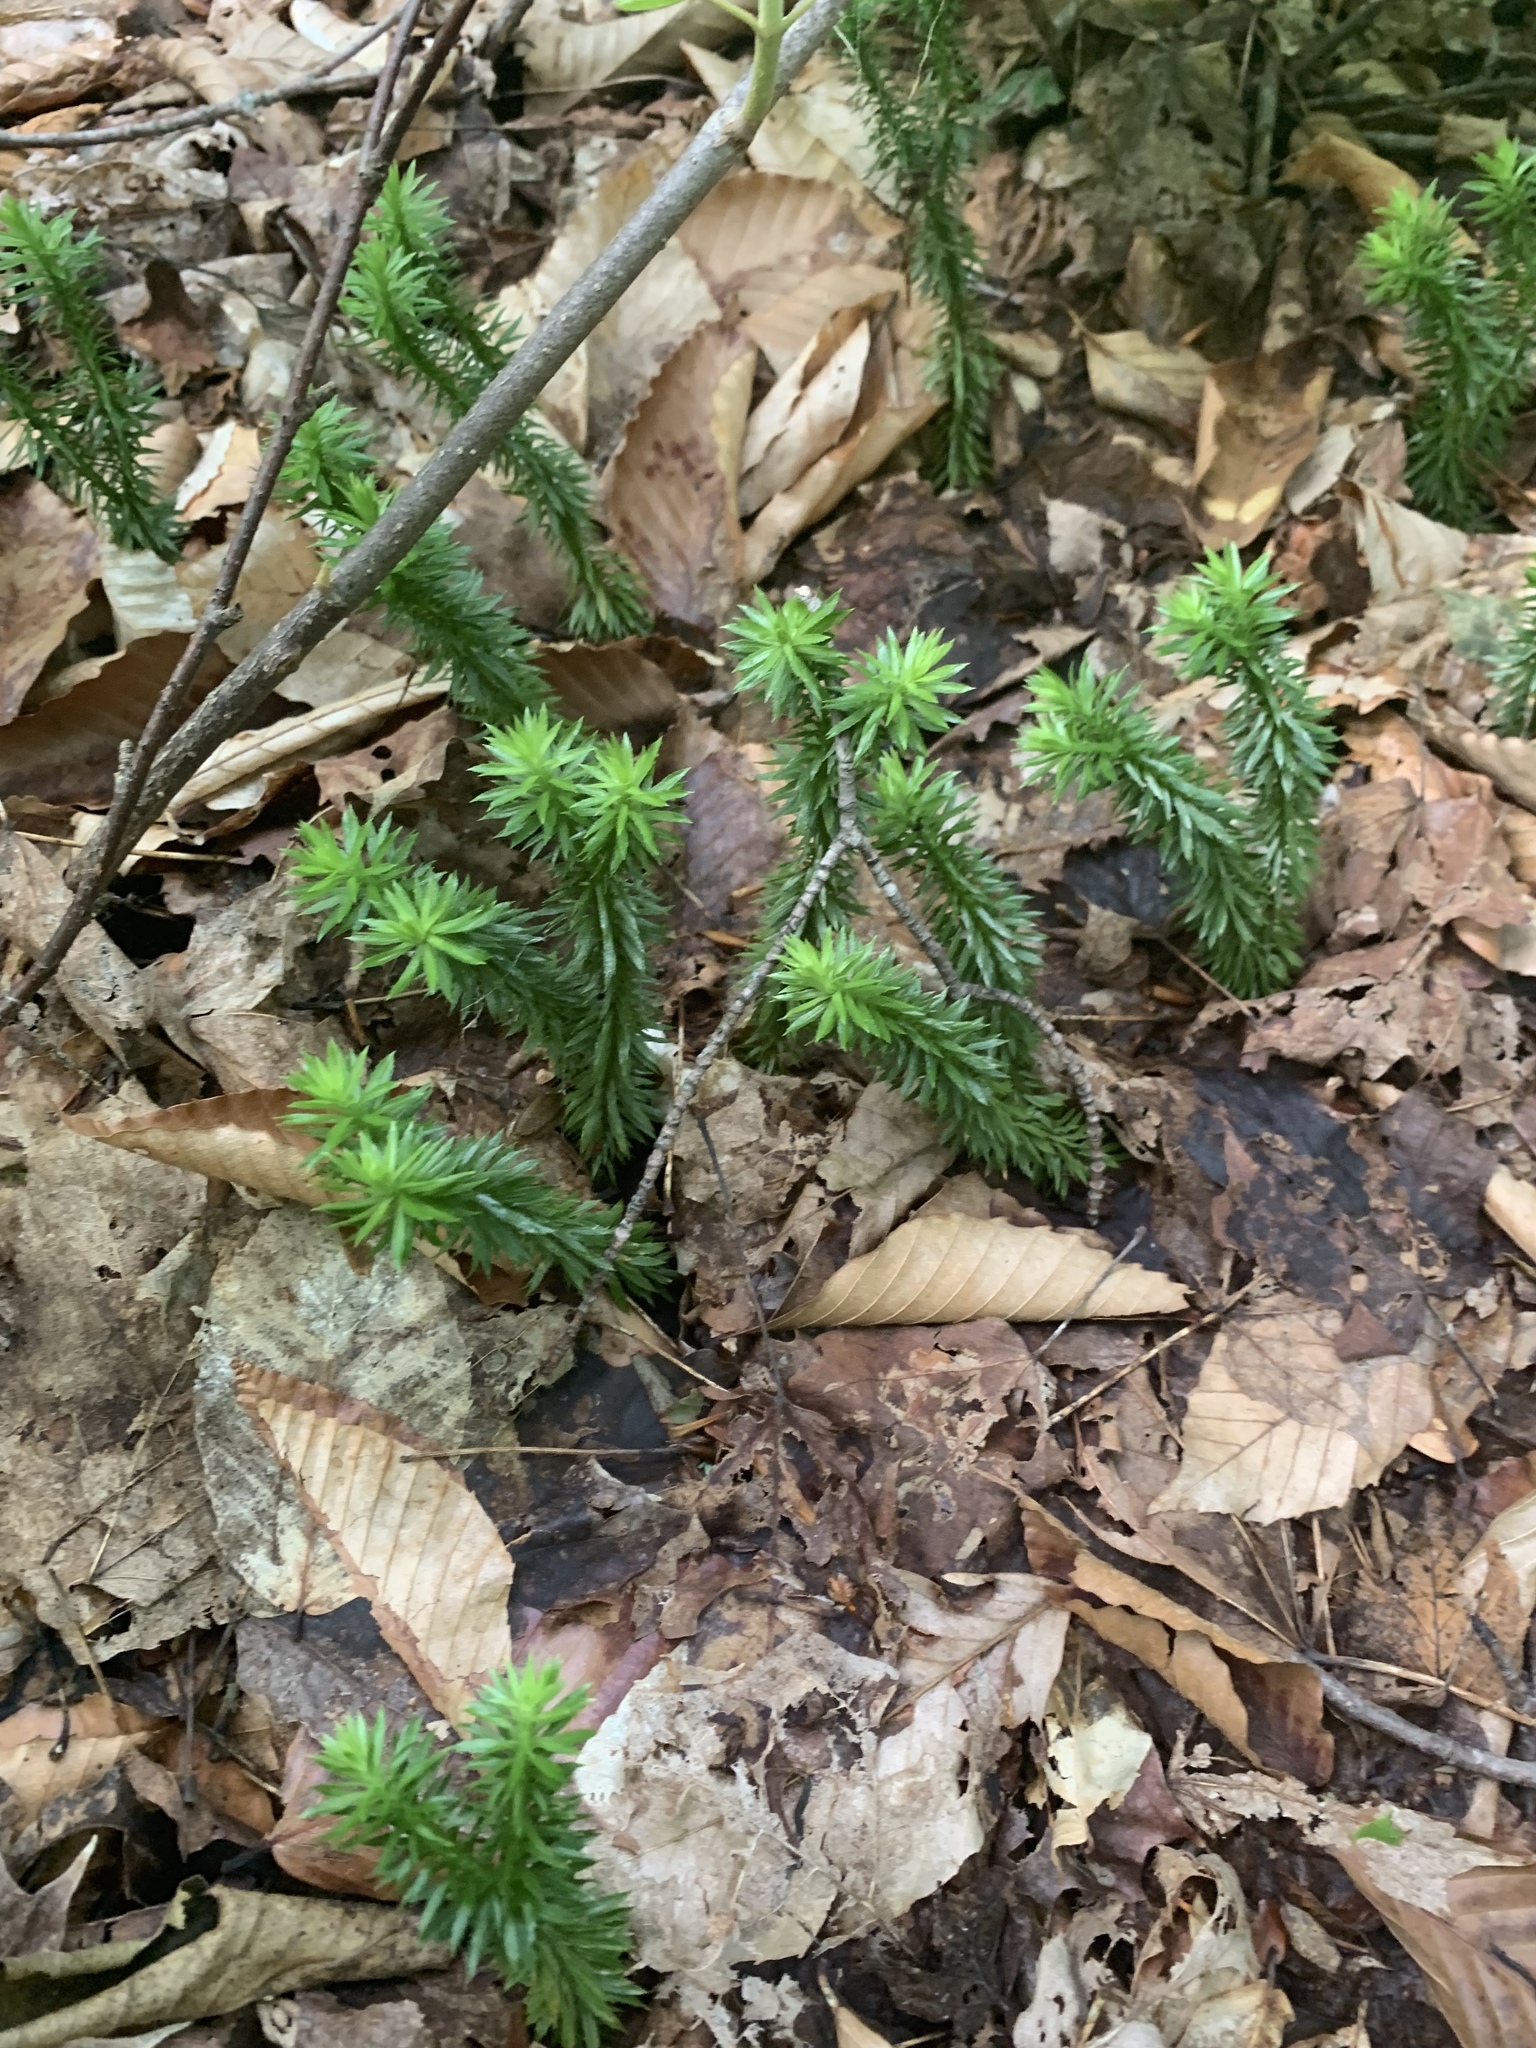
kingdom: Plantae
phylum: Tracheophyta
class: Lycopodiopsida
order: Lycopodiales
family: Lycopodiaceae
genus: Huperzia
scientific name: Huperzia lucidula
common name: Shining clubmoss
